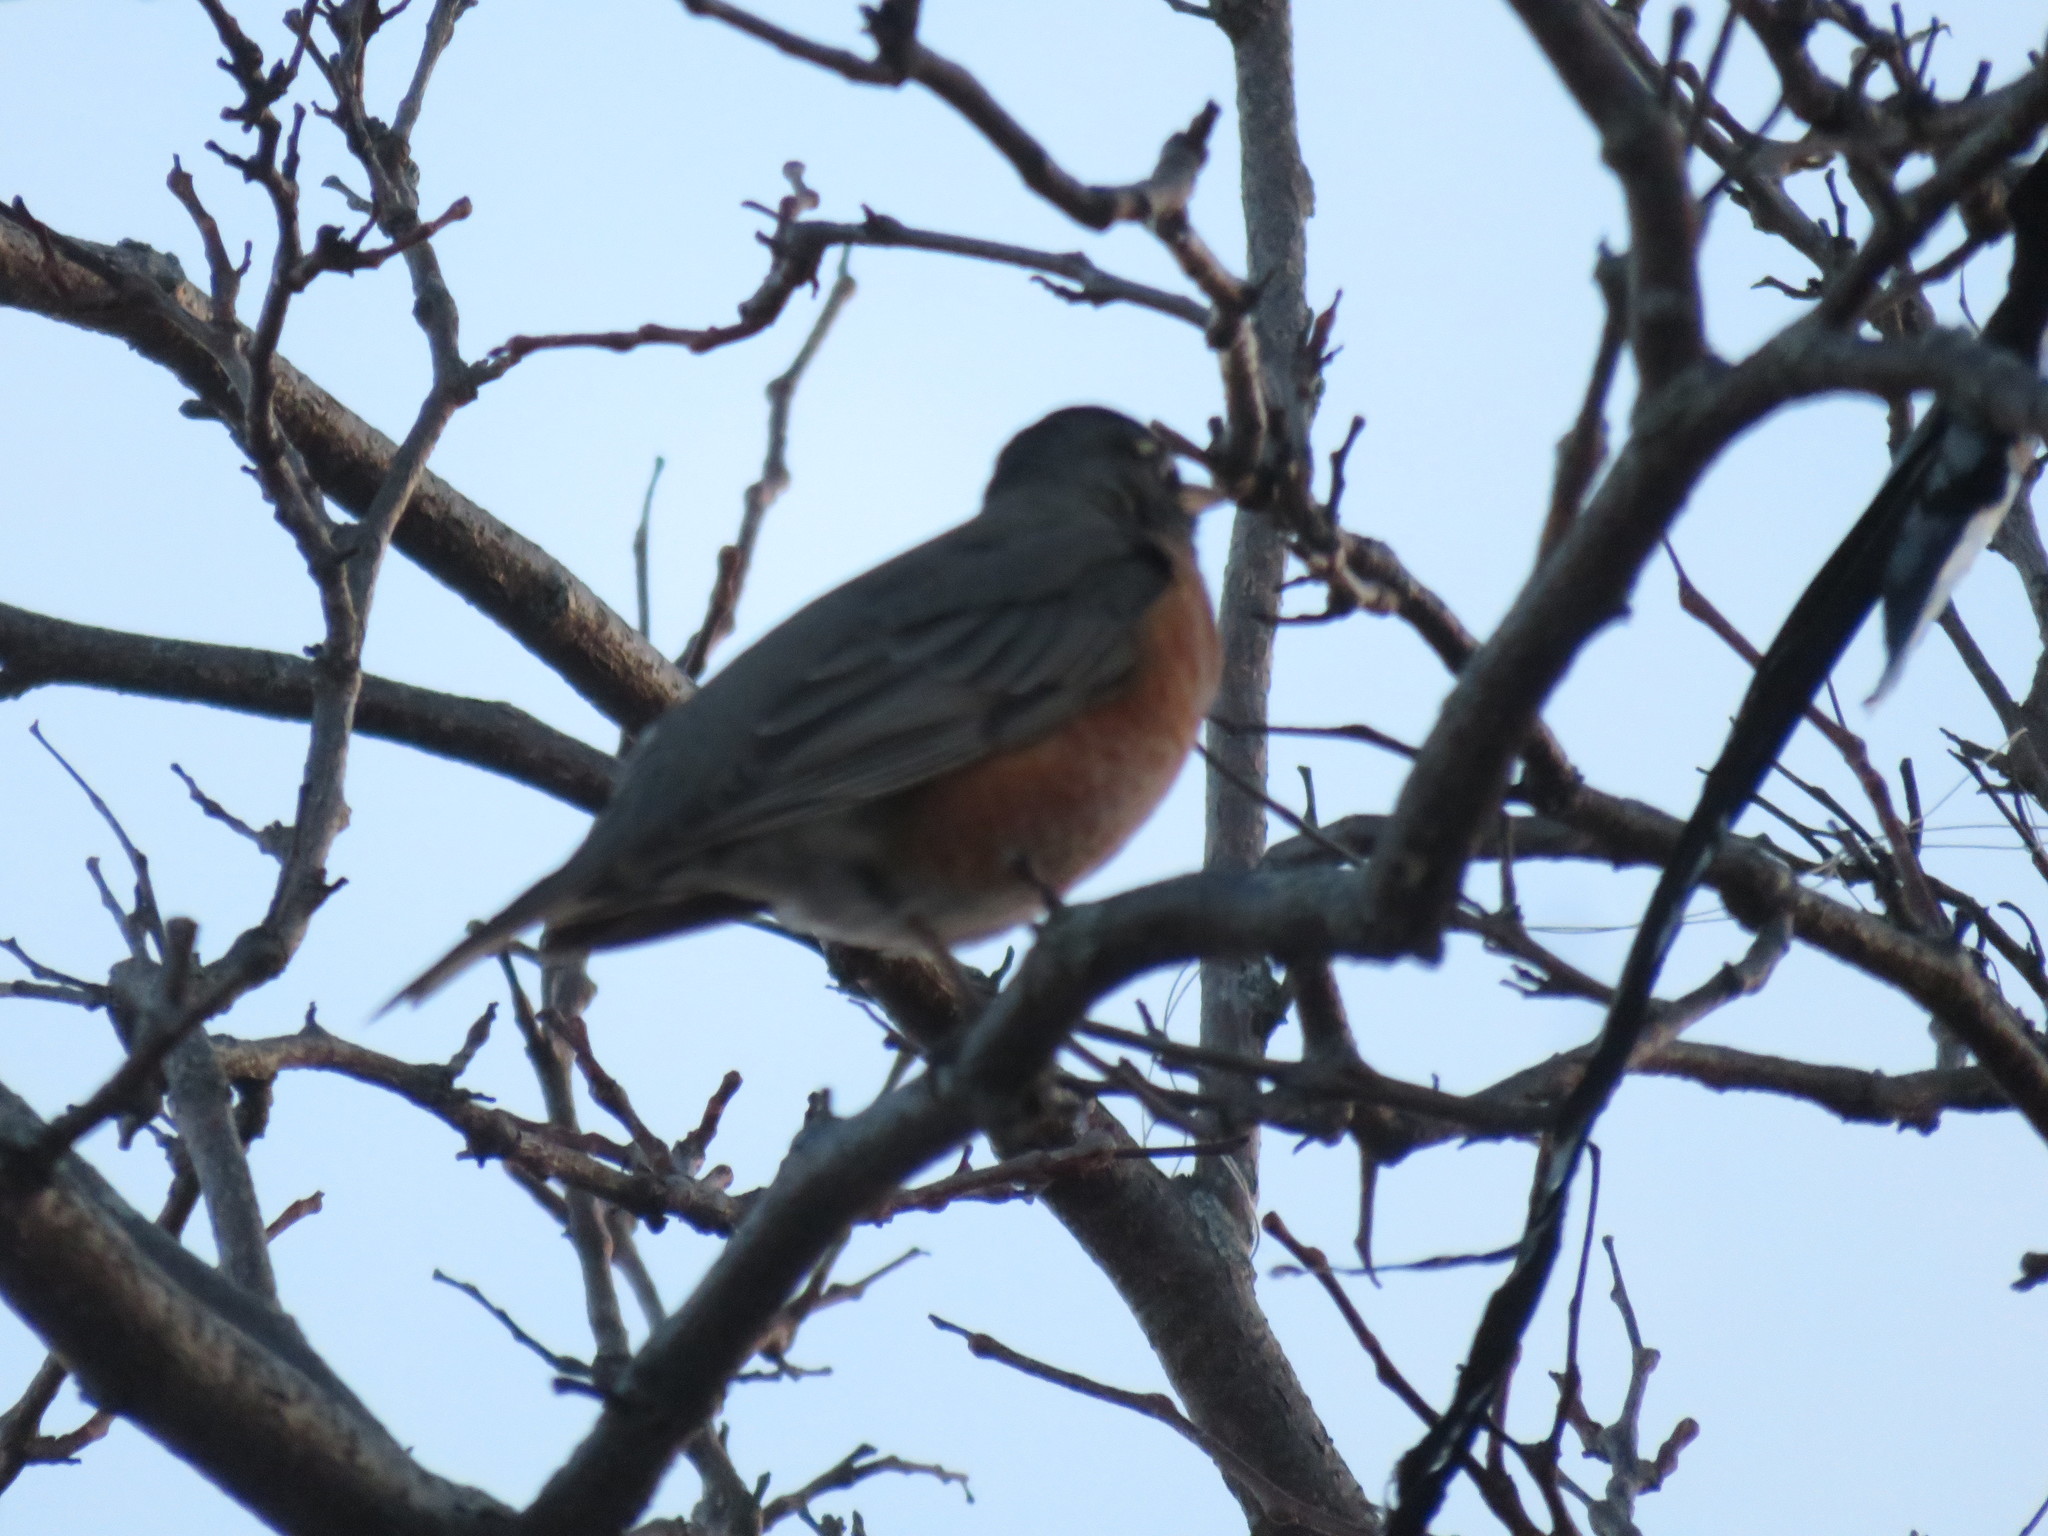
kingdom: Animalia
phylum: Chordata
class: Aves
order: Passeriformes
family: Turdidae
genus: Turdus
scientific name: Turdus migratorius
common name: American robin
